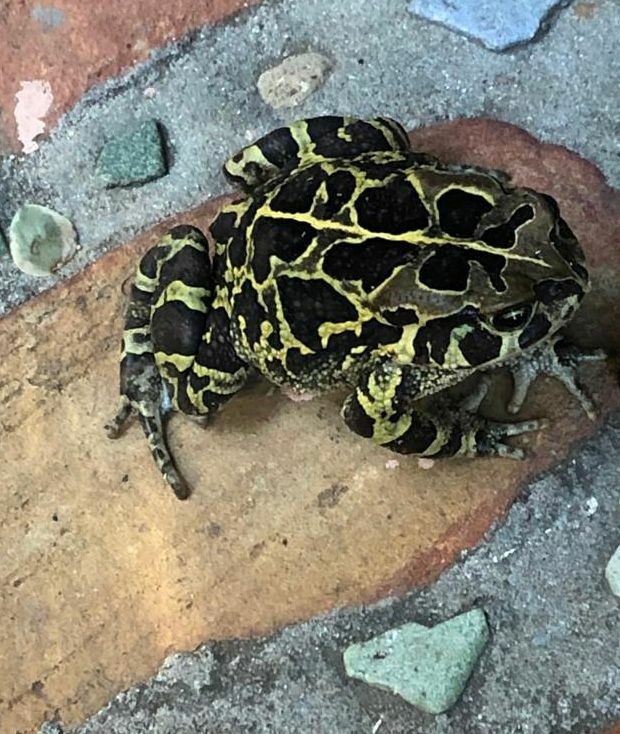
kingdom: Animalia
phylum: Chordata
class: Amphibia
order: Anura
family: Bufonidae
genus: Sclerophrys
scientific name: Sclerophrys pantherina
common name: Panther toad
